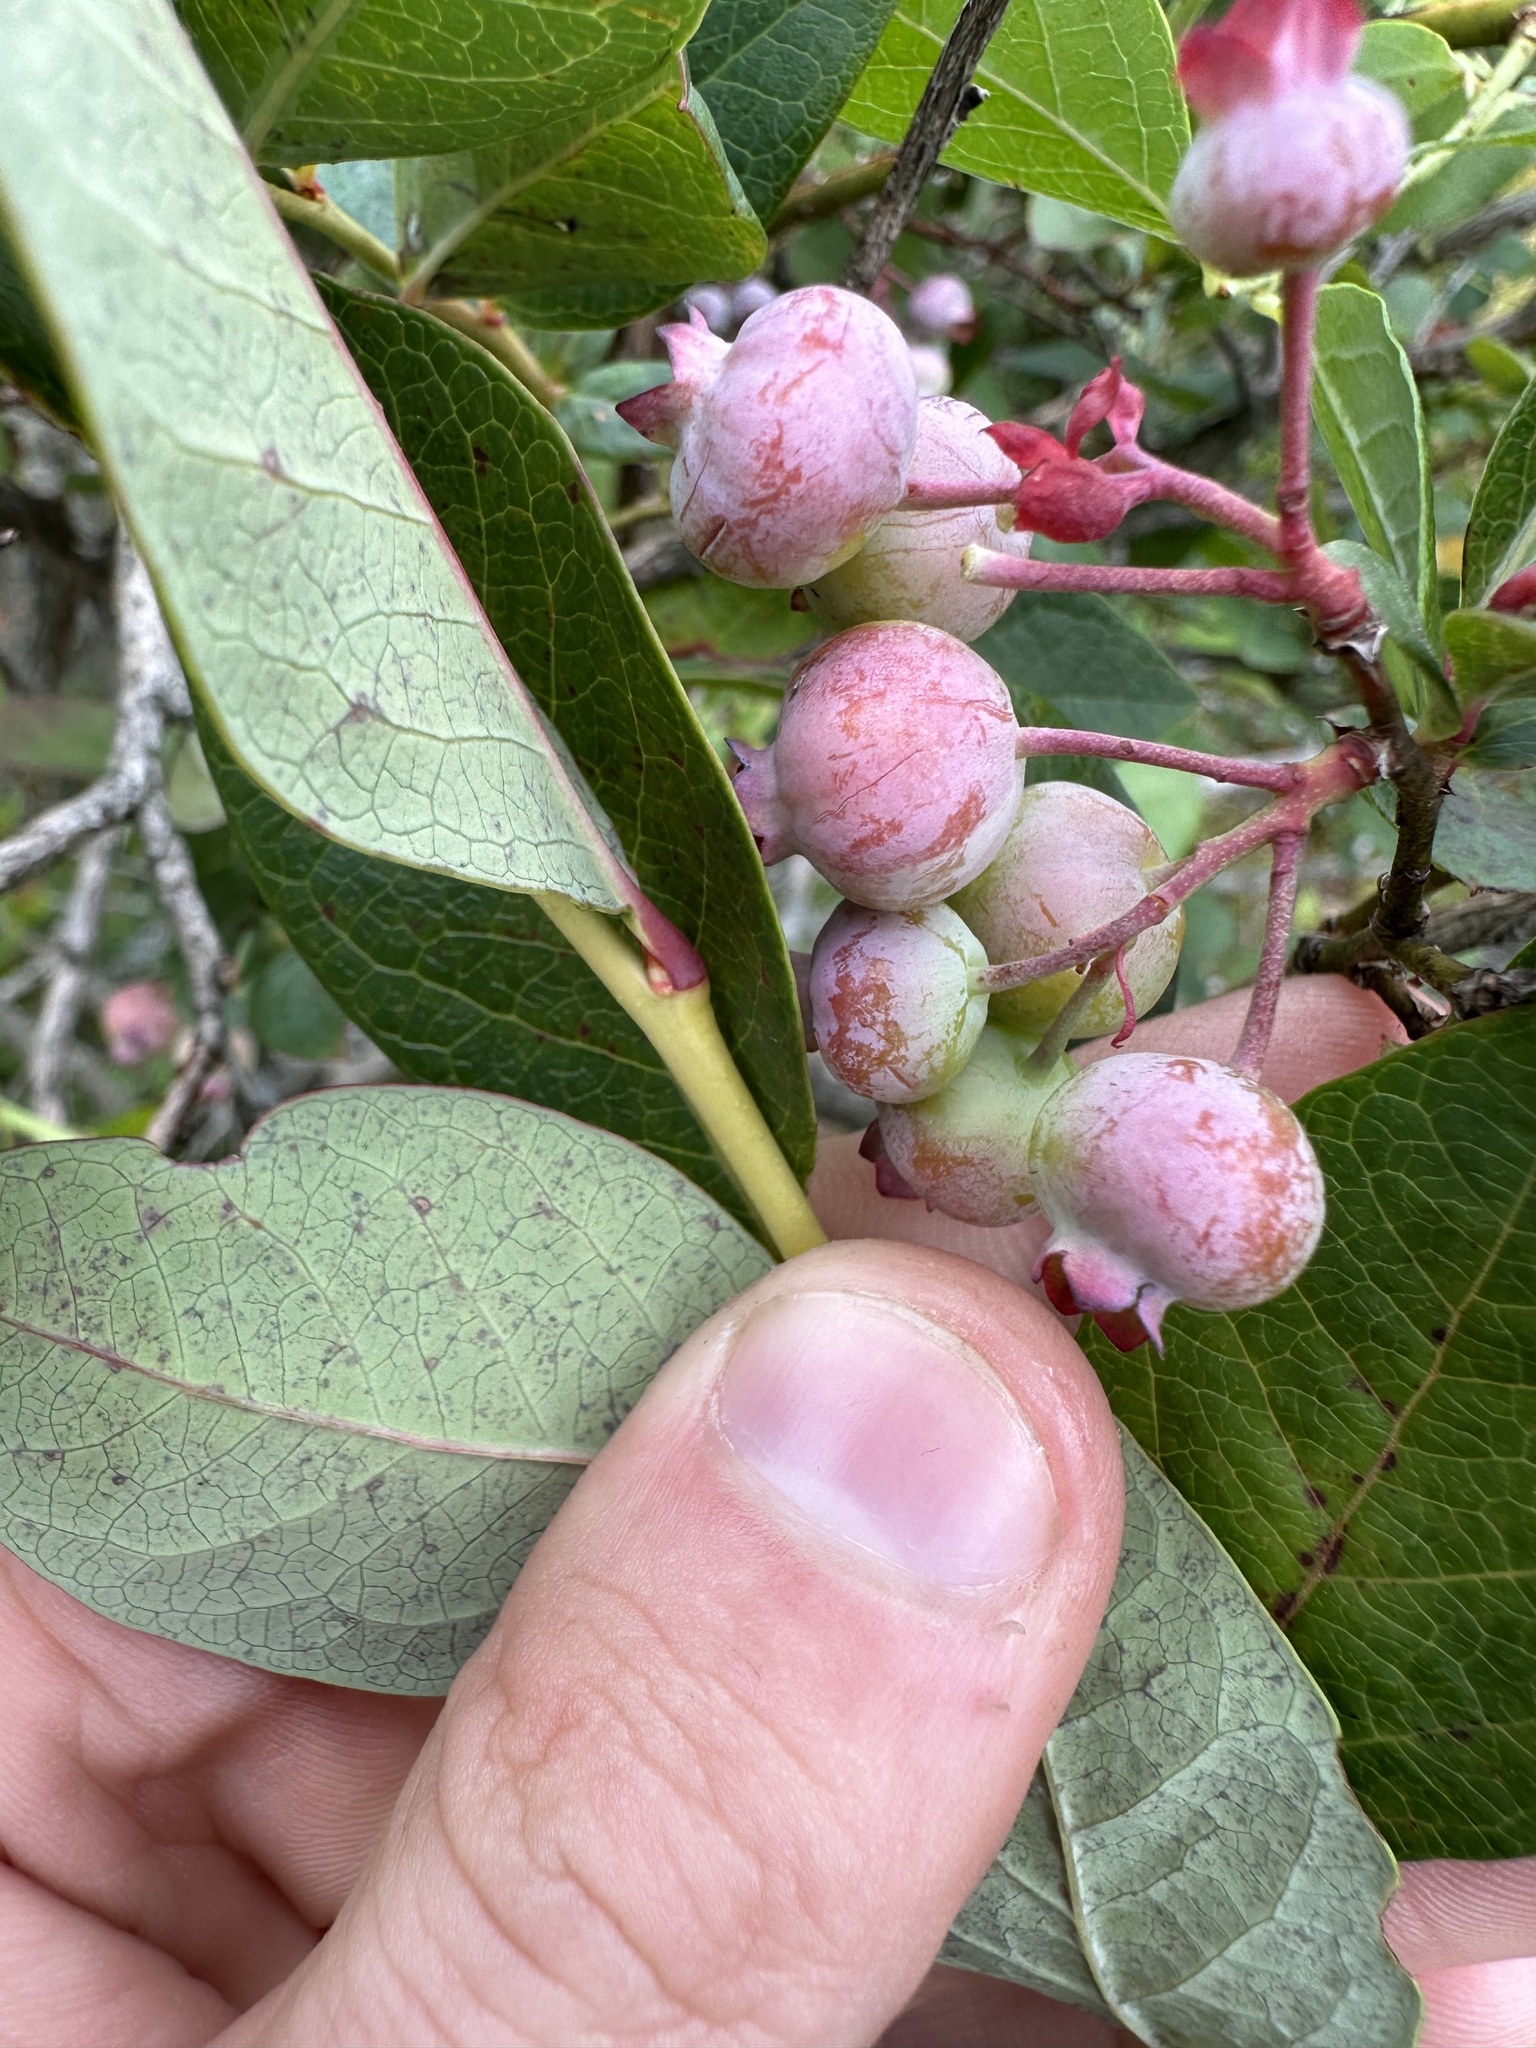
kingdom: Plantae
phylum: Tracheophyta
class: Magnoliopsida
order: Ericales
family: Ericaceae
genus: Vaccinium
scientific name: Vaccinium corymbosum
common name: Blueberry
